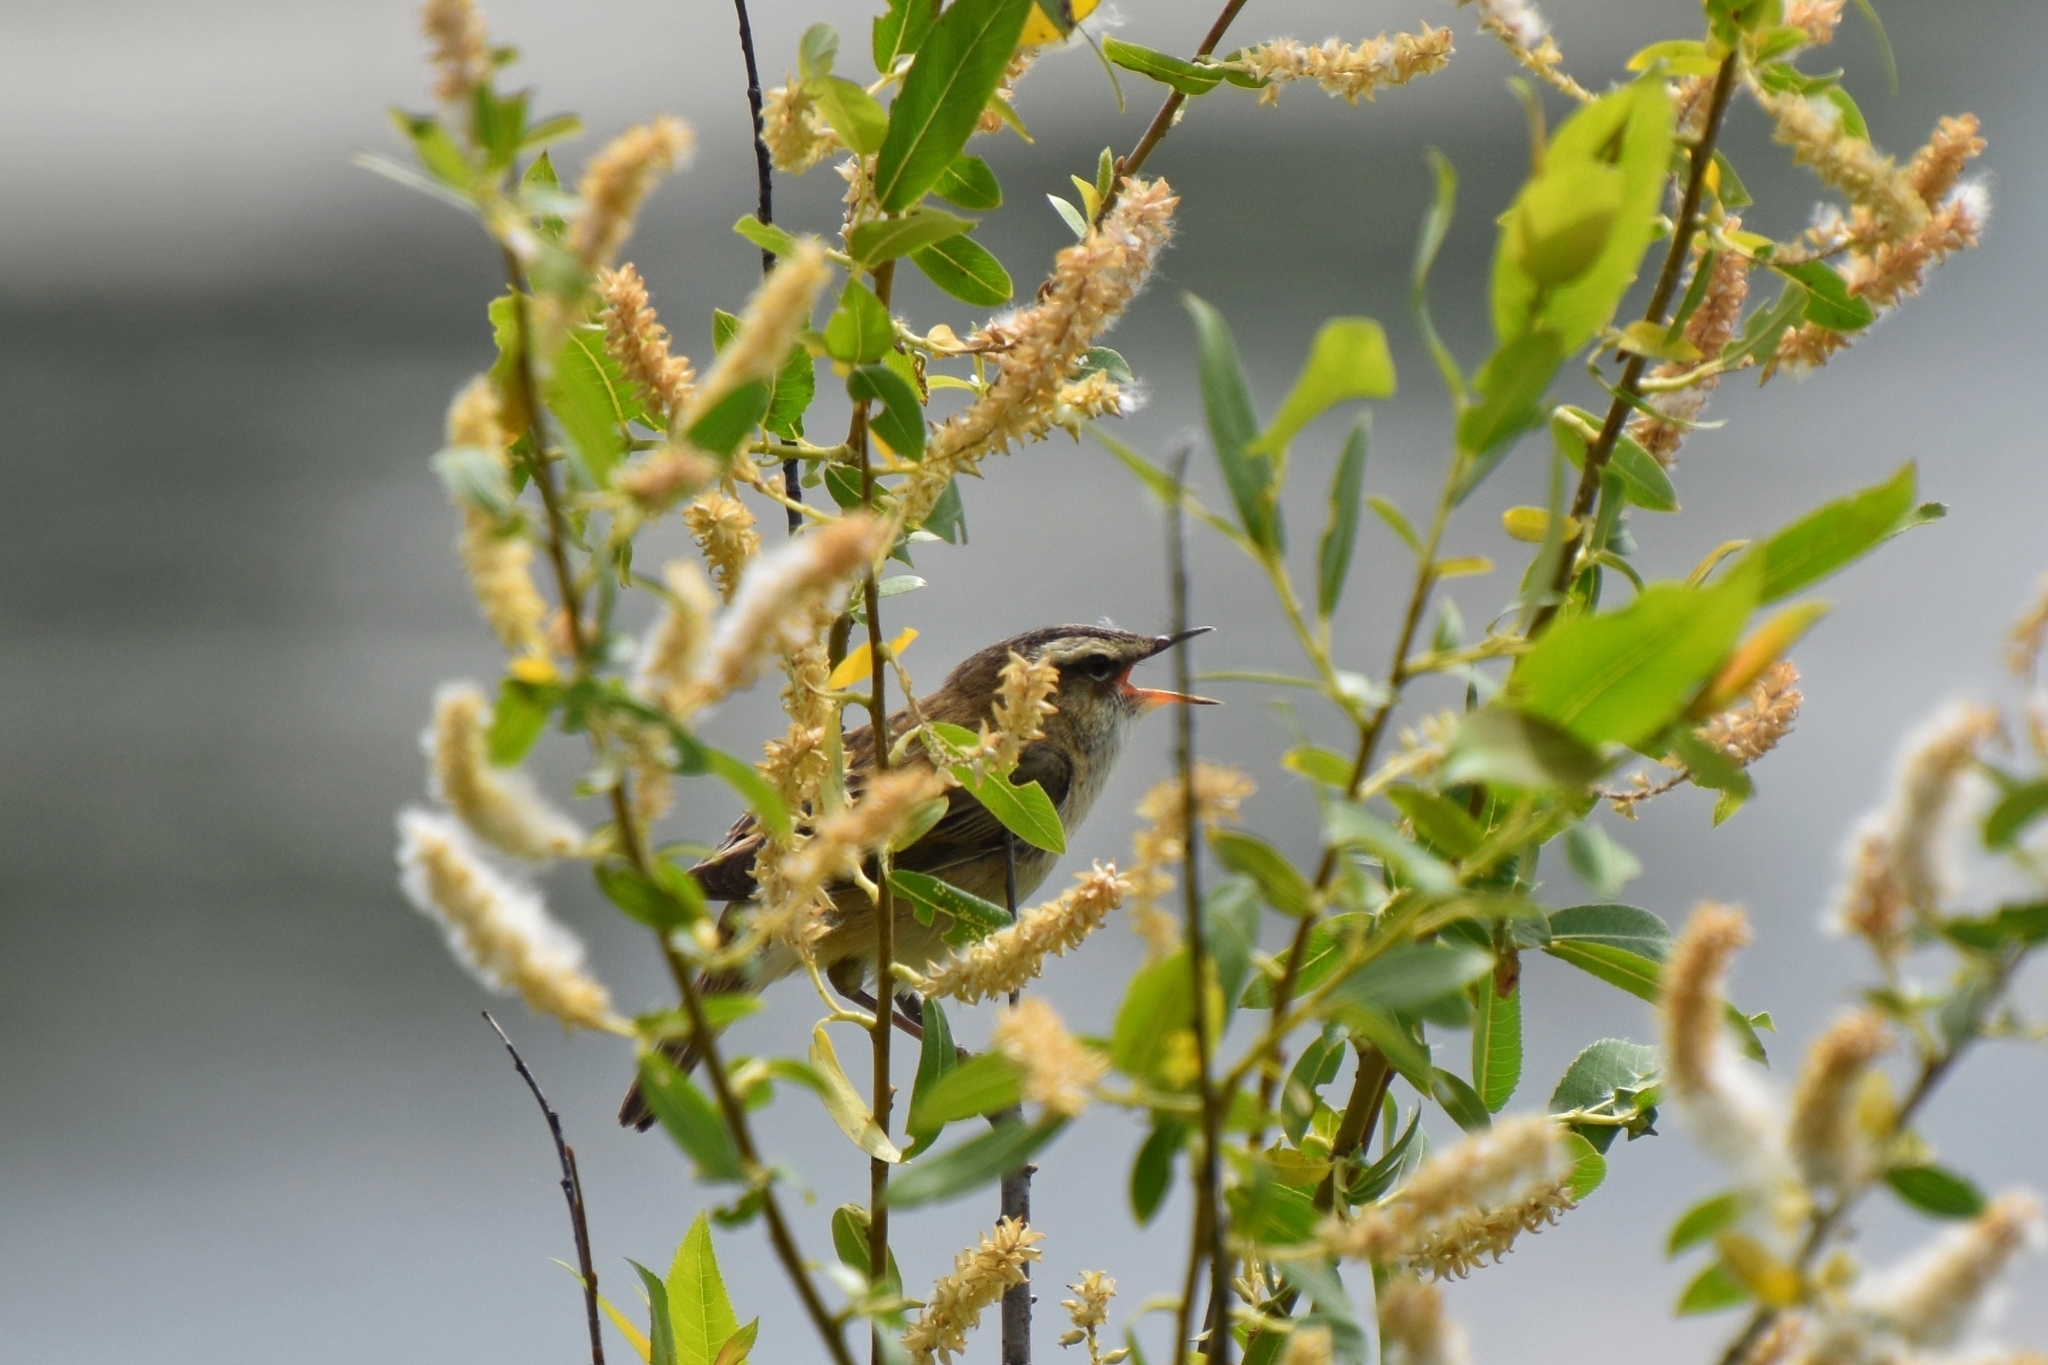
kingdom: Animalia
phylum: Chordata
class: Aves
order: Passeriformes
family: Acrocephalidae
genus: Acrocephalus
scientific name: Acrocephalus schoenobaenus
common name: Sedge warbler
